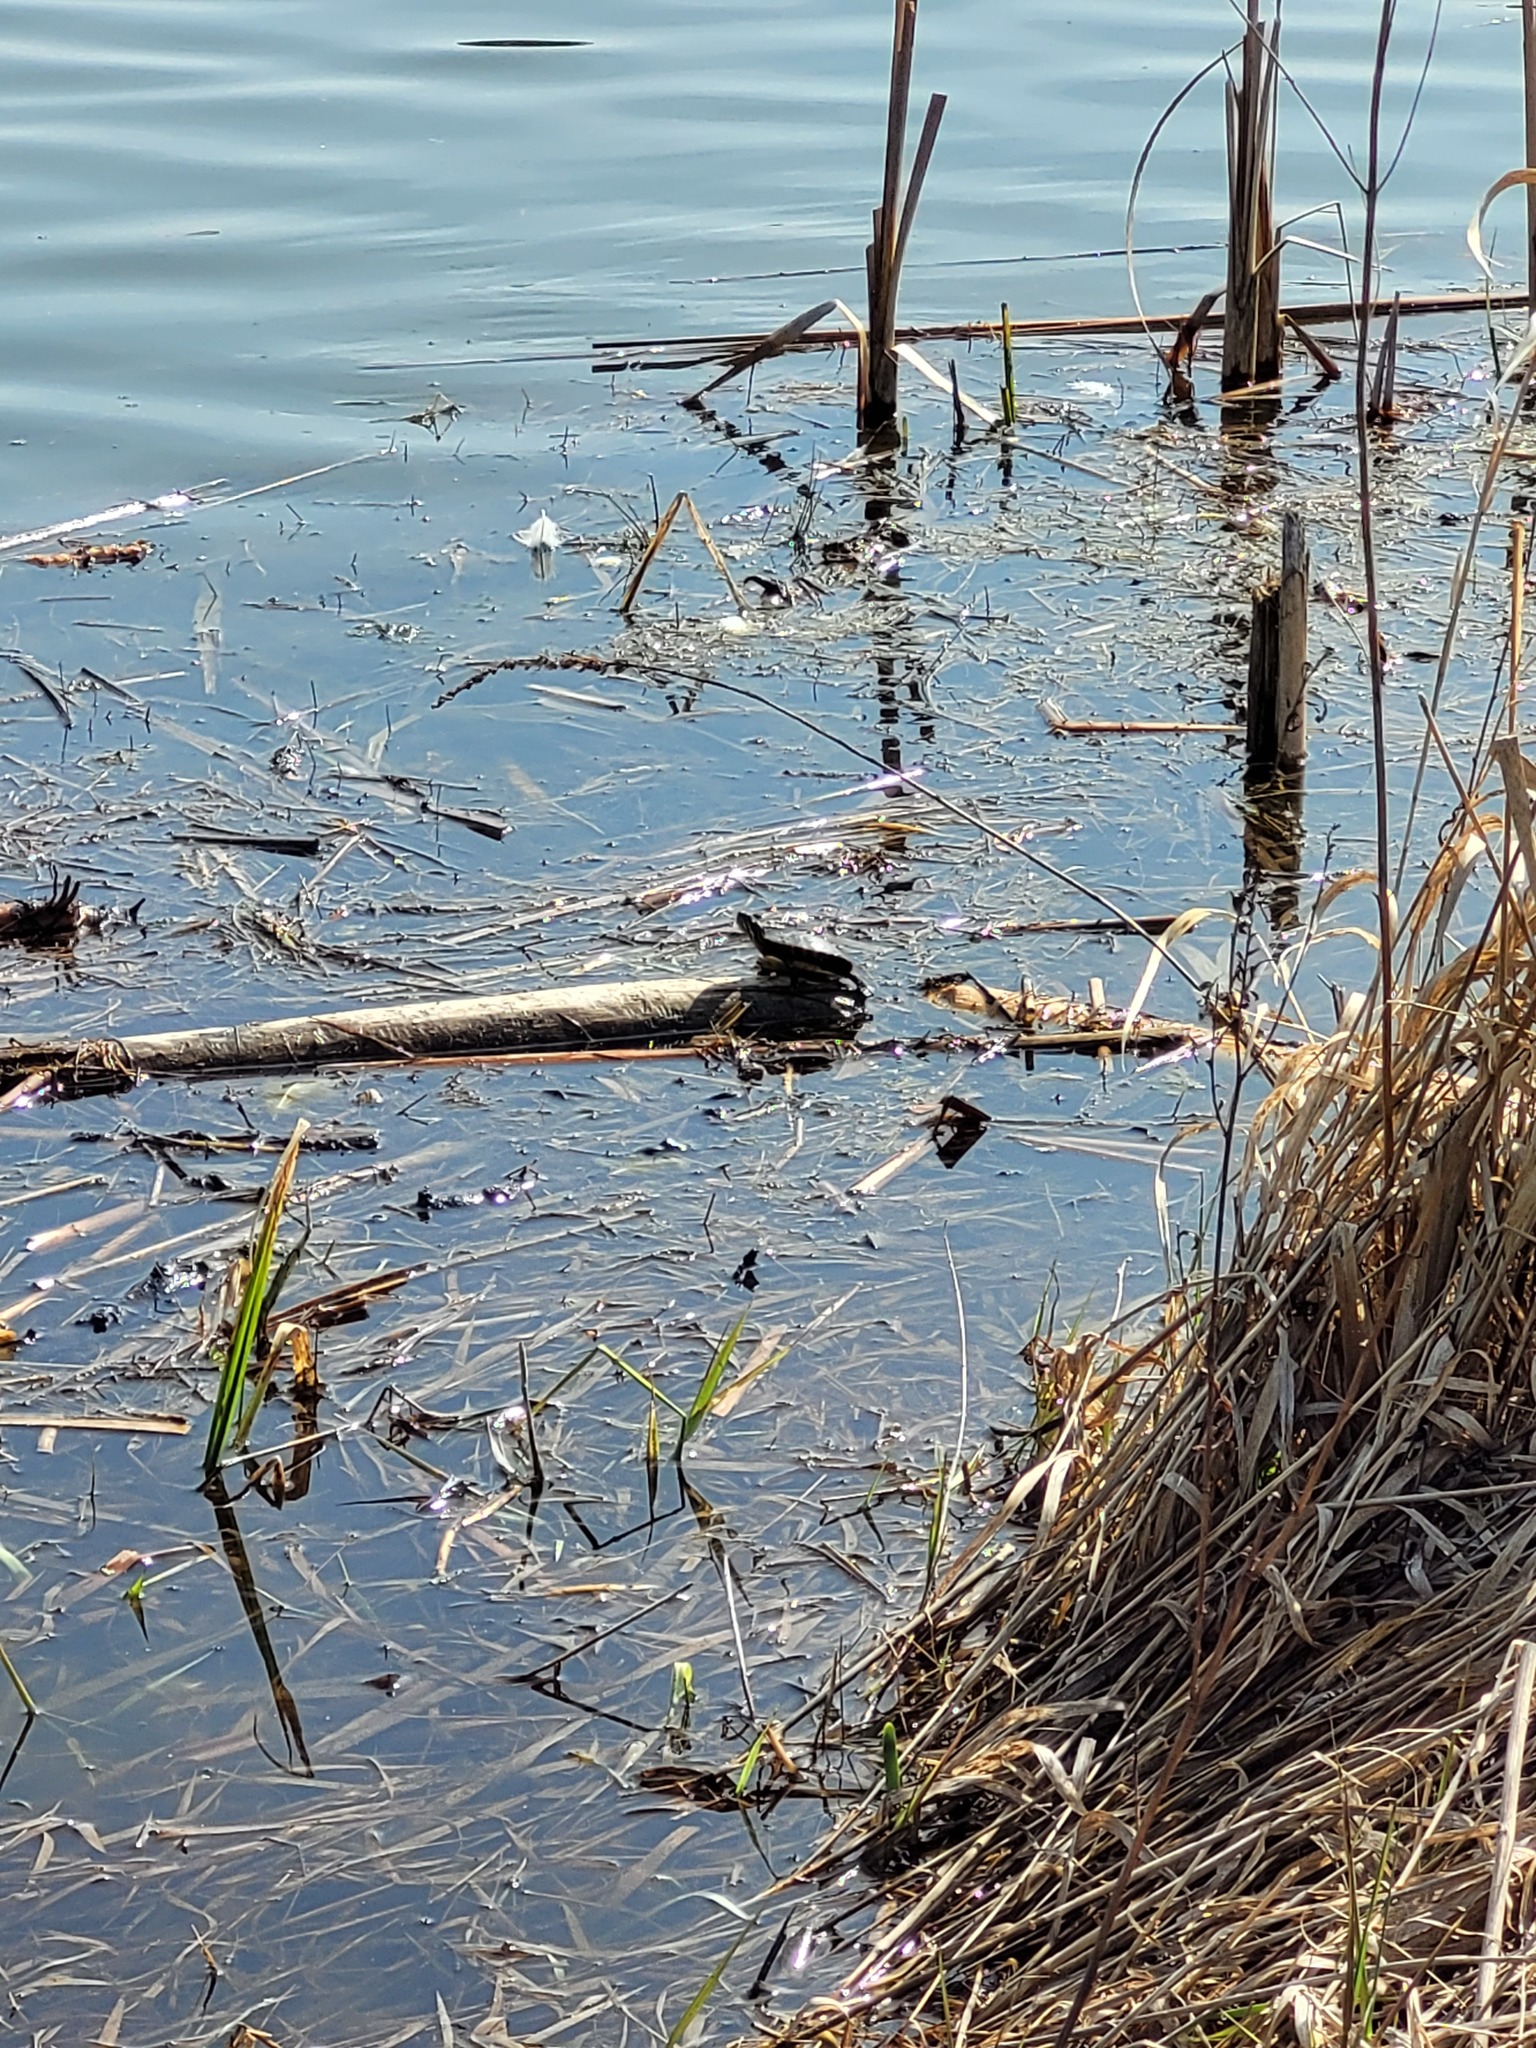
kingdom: Animalia
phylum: Chordata
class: Testudines
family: Emydidae
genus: Chrysemys
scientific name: Chrysemys picta
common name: Painted turtle
